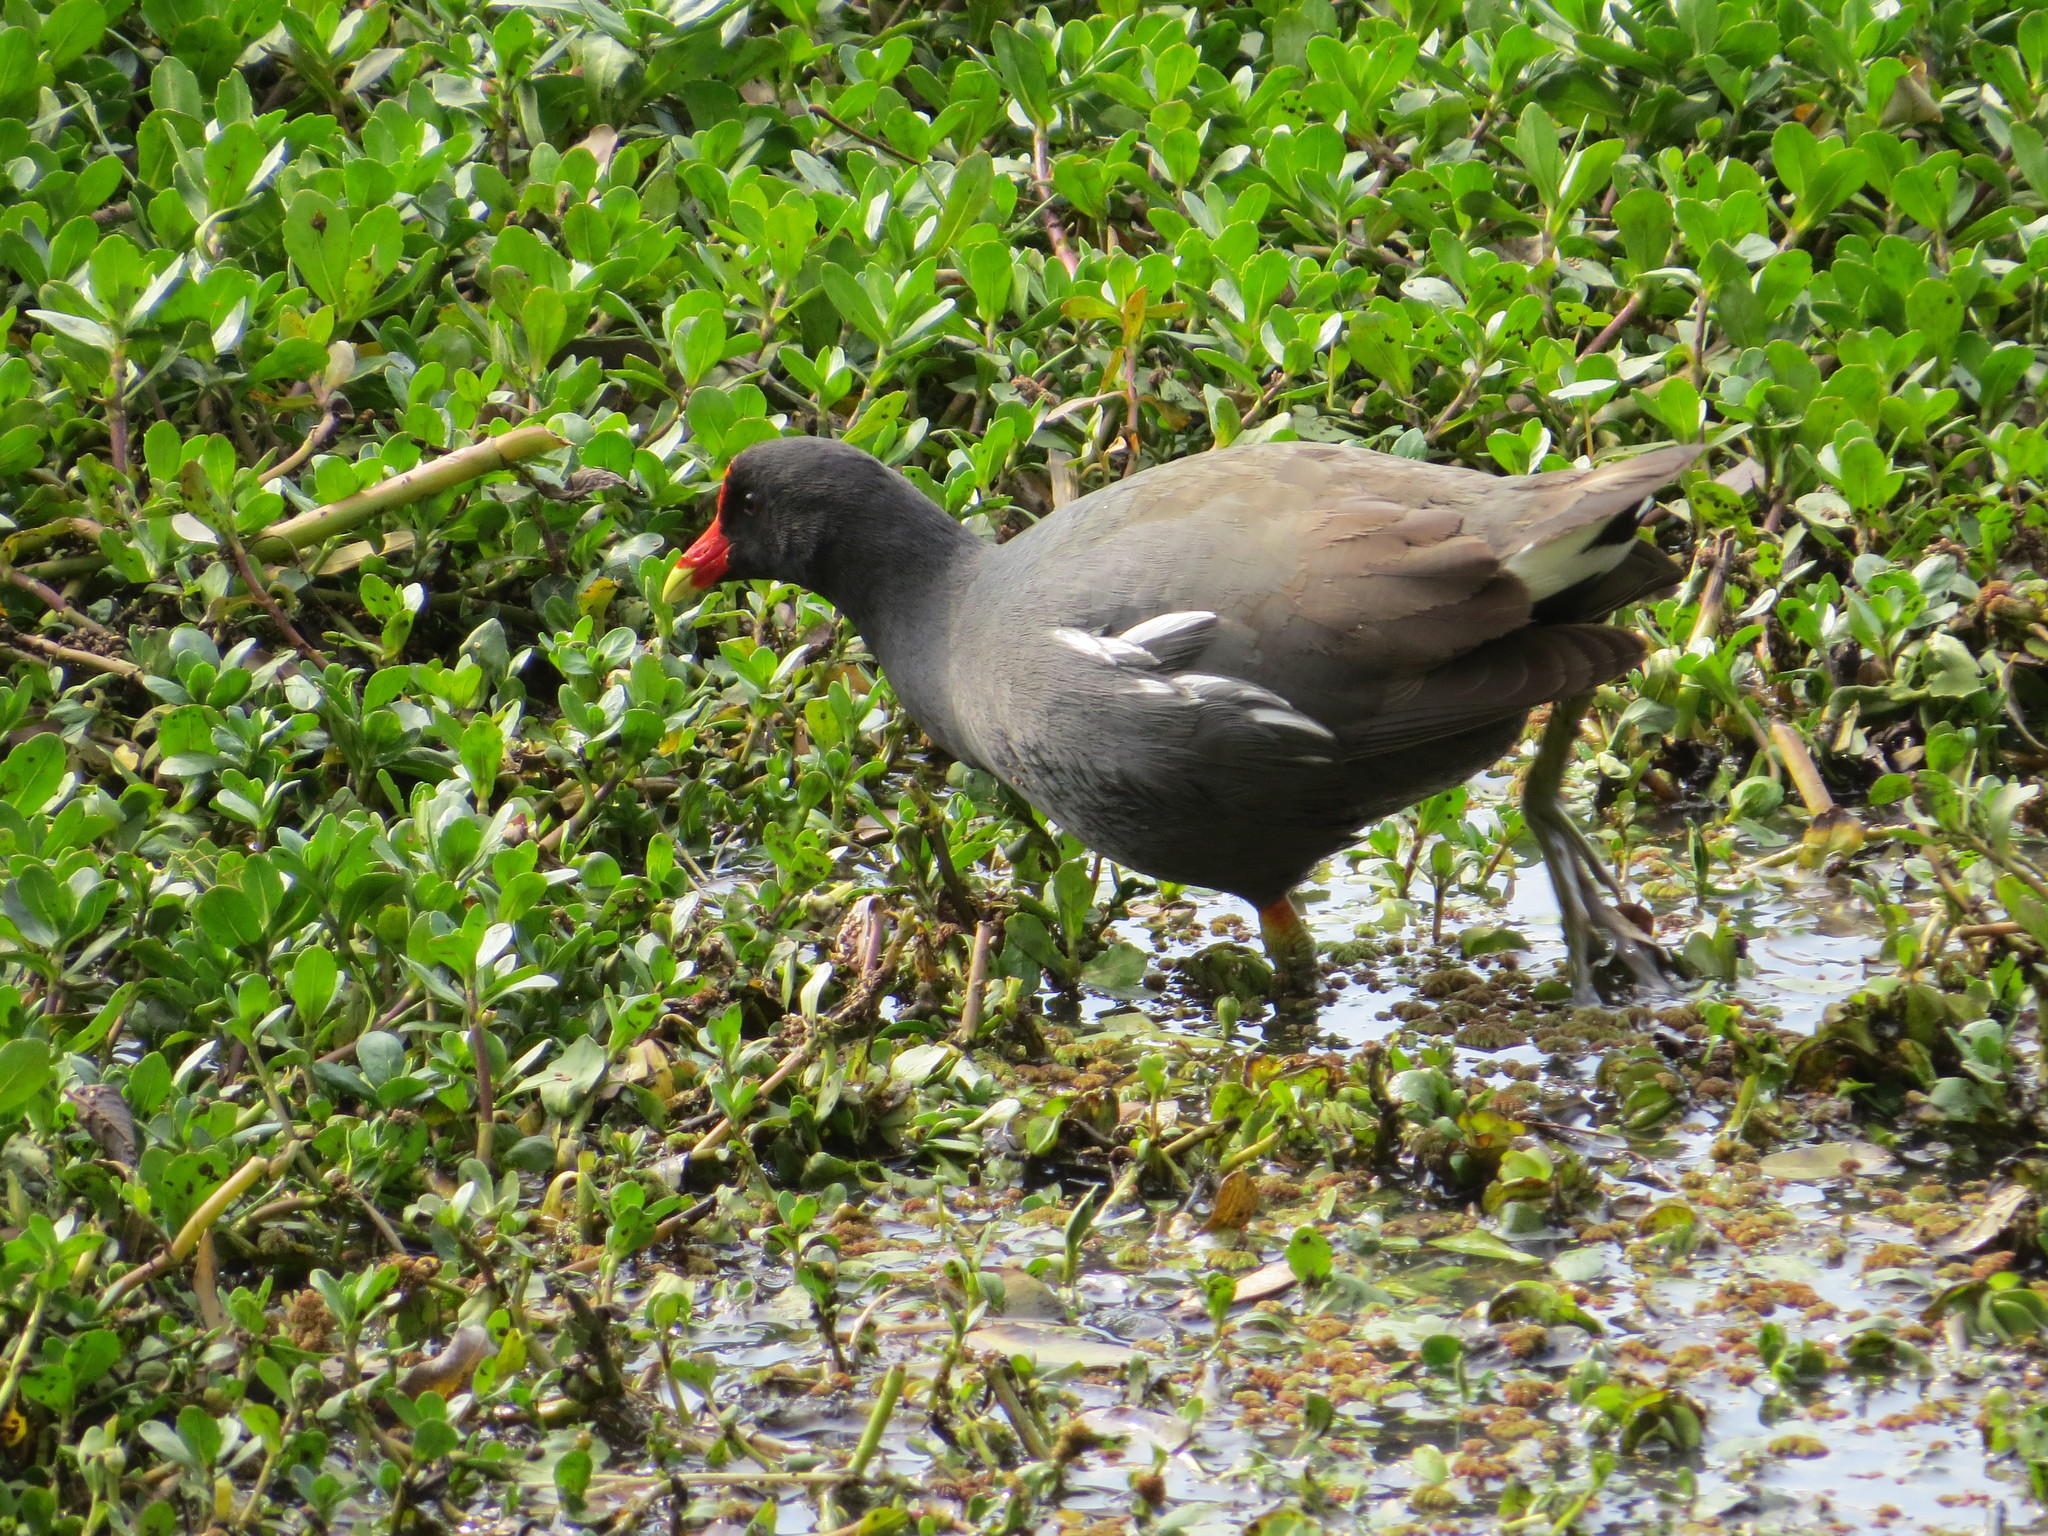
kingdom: Animalia
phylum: Chordata
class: Aves
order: Gruiformes
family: Rallidae
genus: Gallinula
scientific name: Gallinula chloropus
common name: Common moorhen
